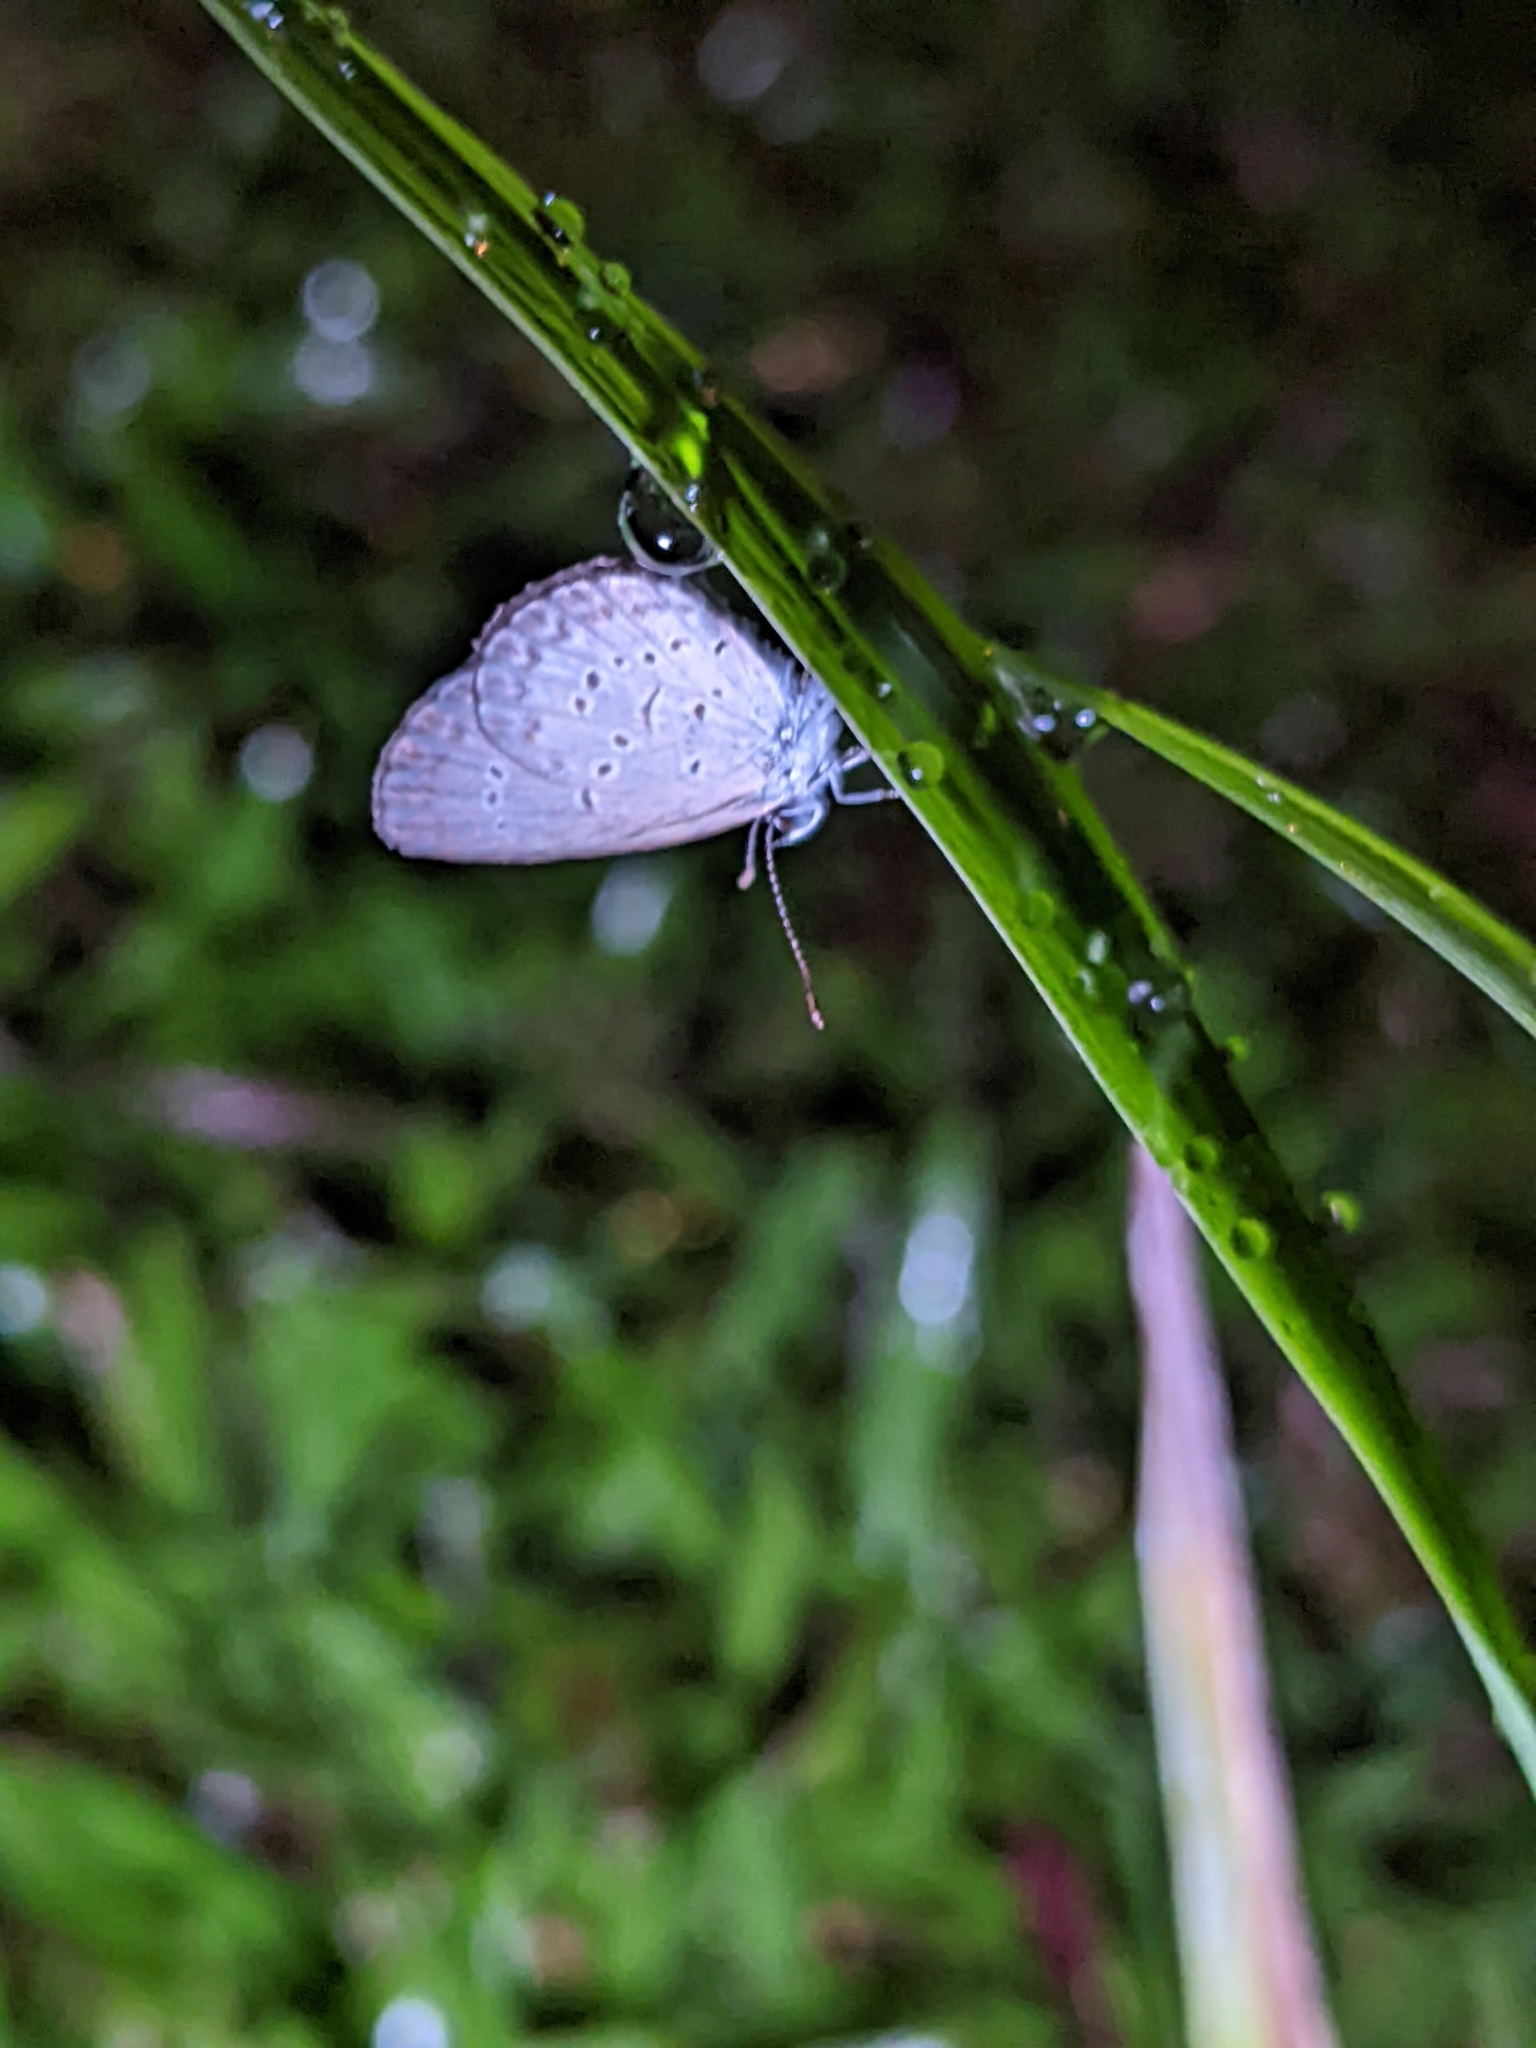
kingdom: Animalia
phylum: Arthropoda
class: Insecta
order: Lepidoptera
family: Lycaenidae
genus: Zizina
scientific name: Zizina otis
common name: Lesser grass blue
